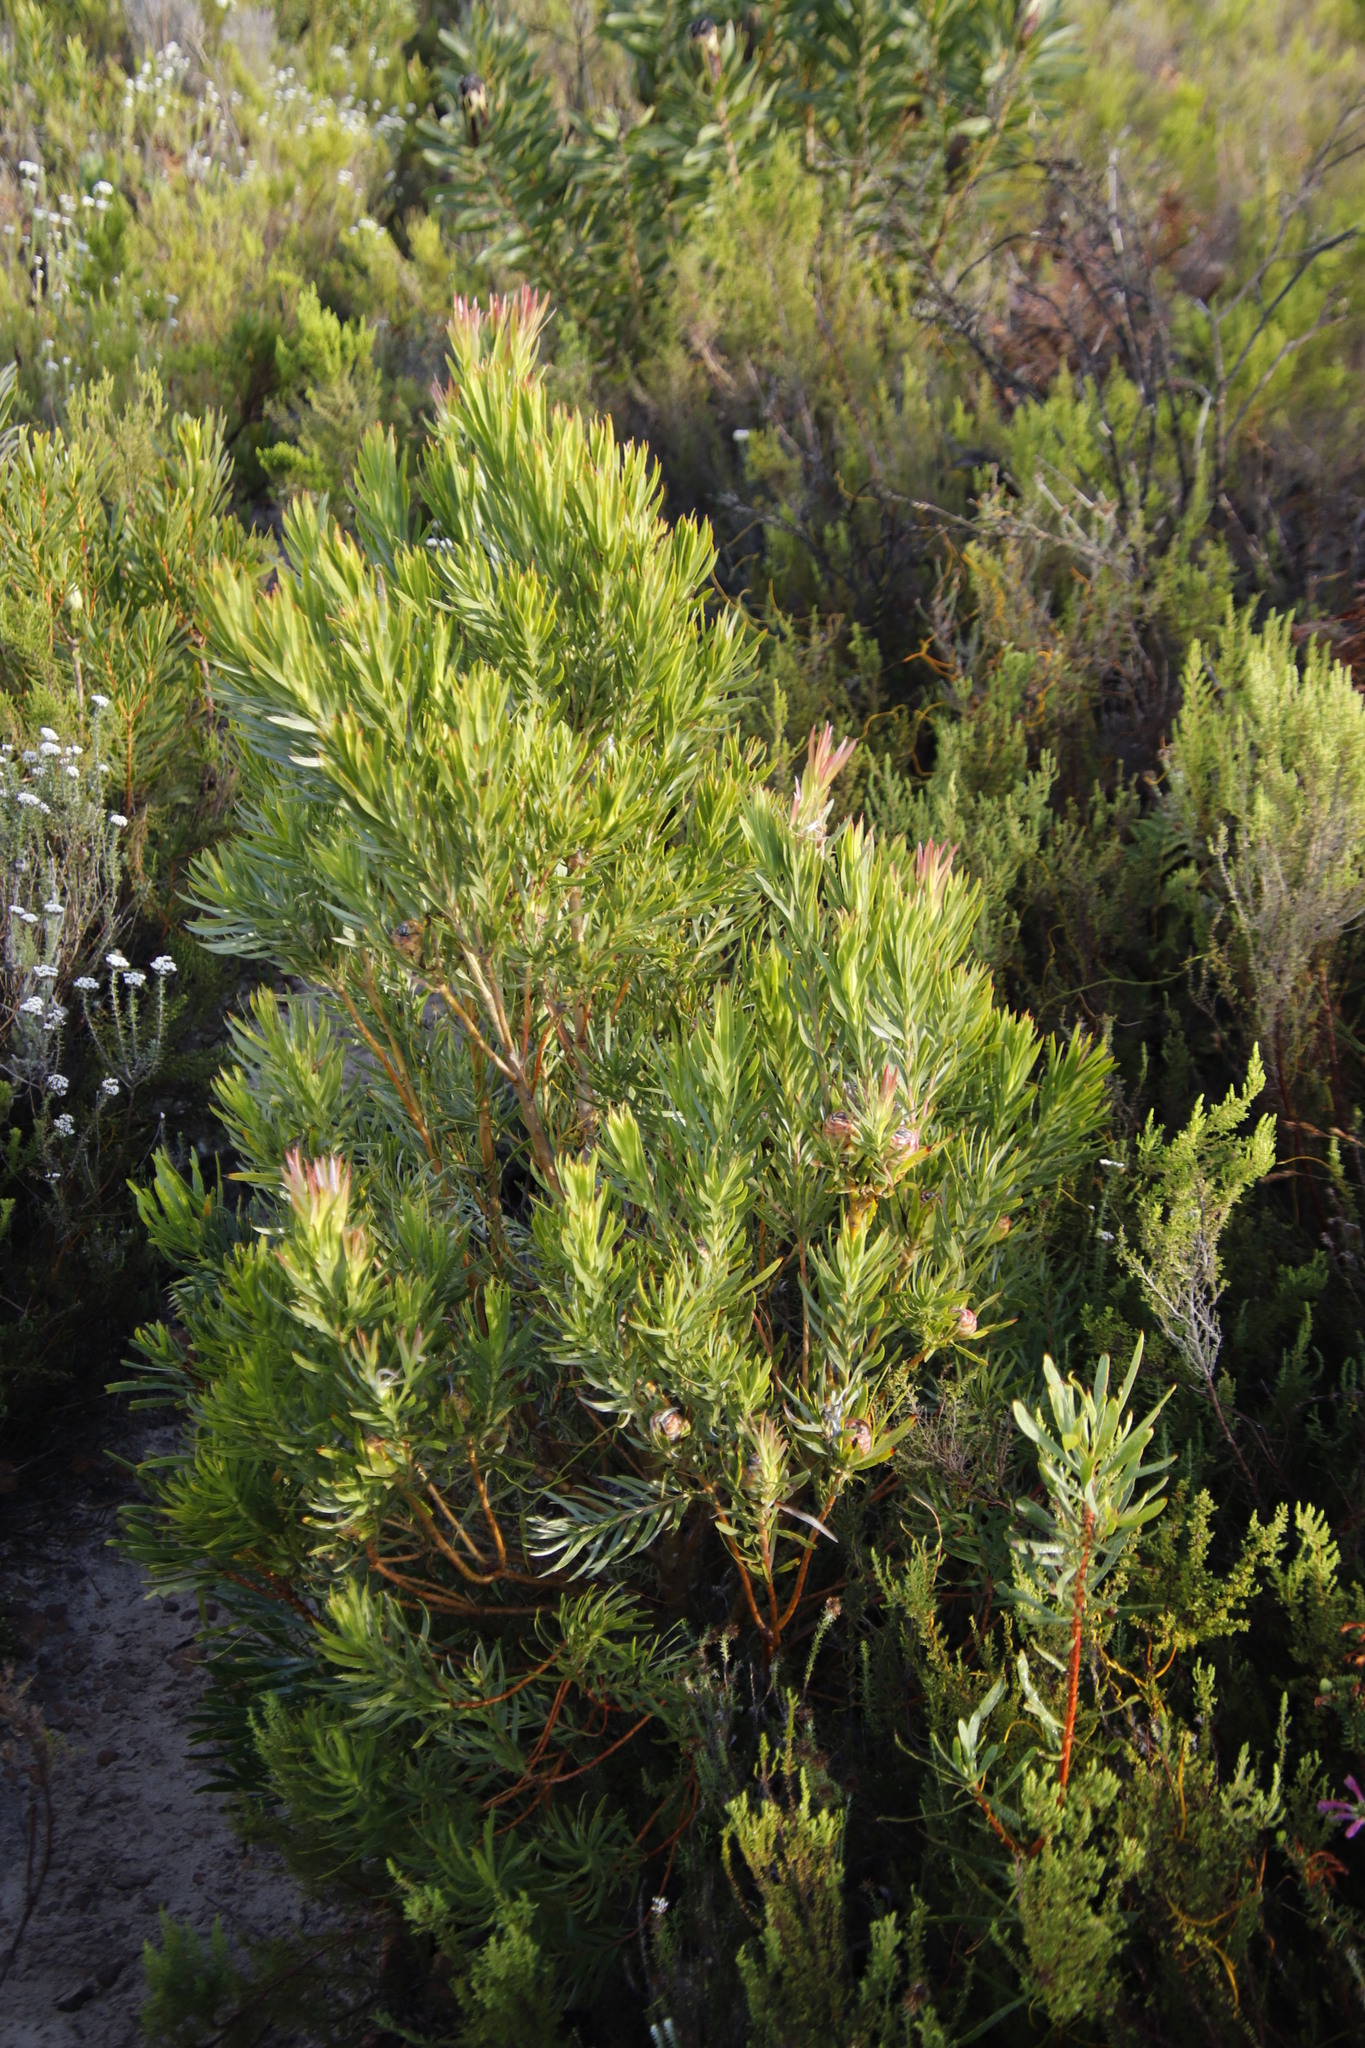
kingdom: Plantae
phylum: Tracheophyta
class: Magnoliopsida
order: Proteales
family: Proteaceae
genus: Leucadendron
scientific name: Leucadendron xanthoconus
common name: Sickle-leaf conebush
